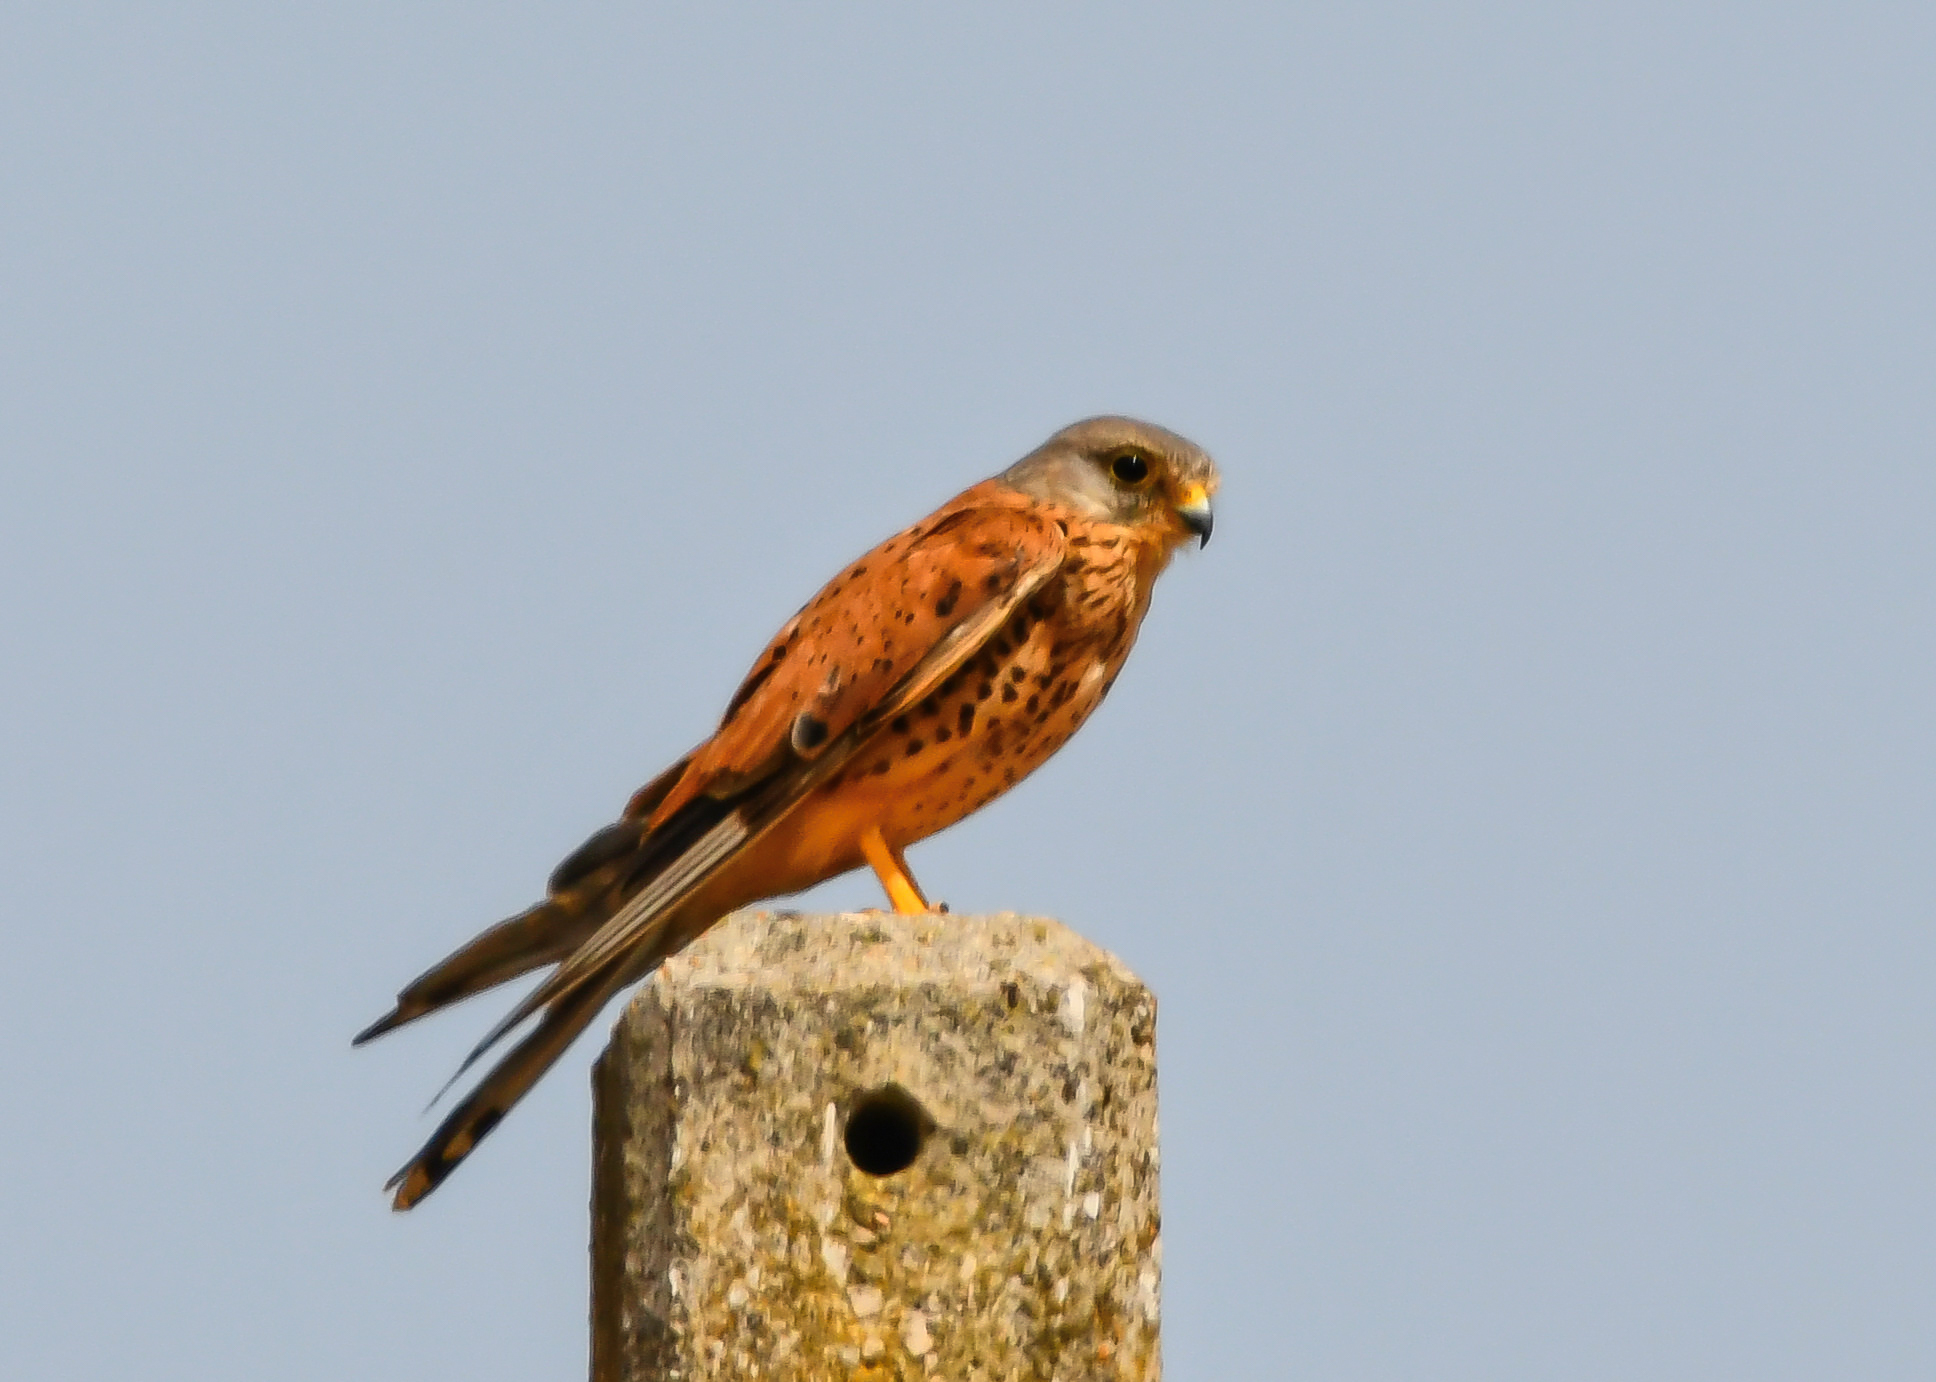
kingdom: Animalia
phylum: Chordata
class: Aves
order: Falconiformes
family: Falconidae
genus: Falco
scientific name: Falco tinnunculus
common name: Common kestrel
